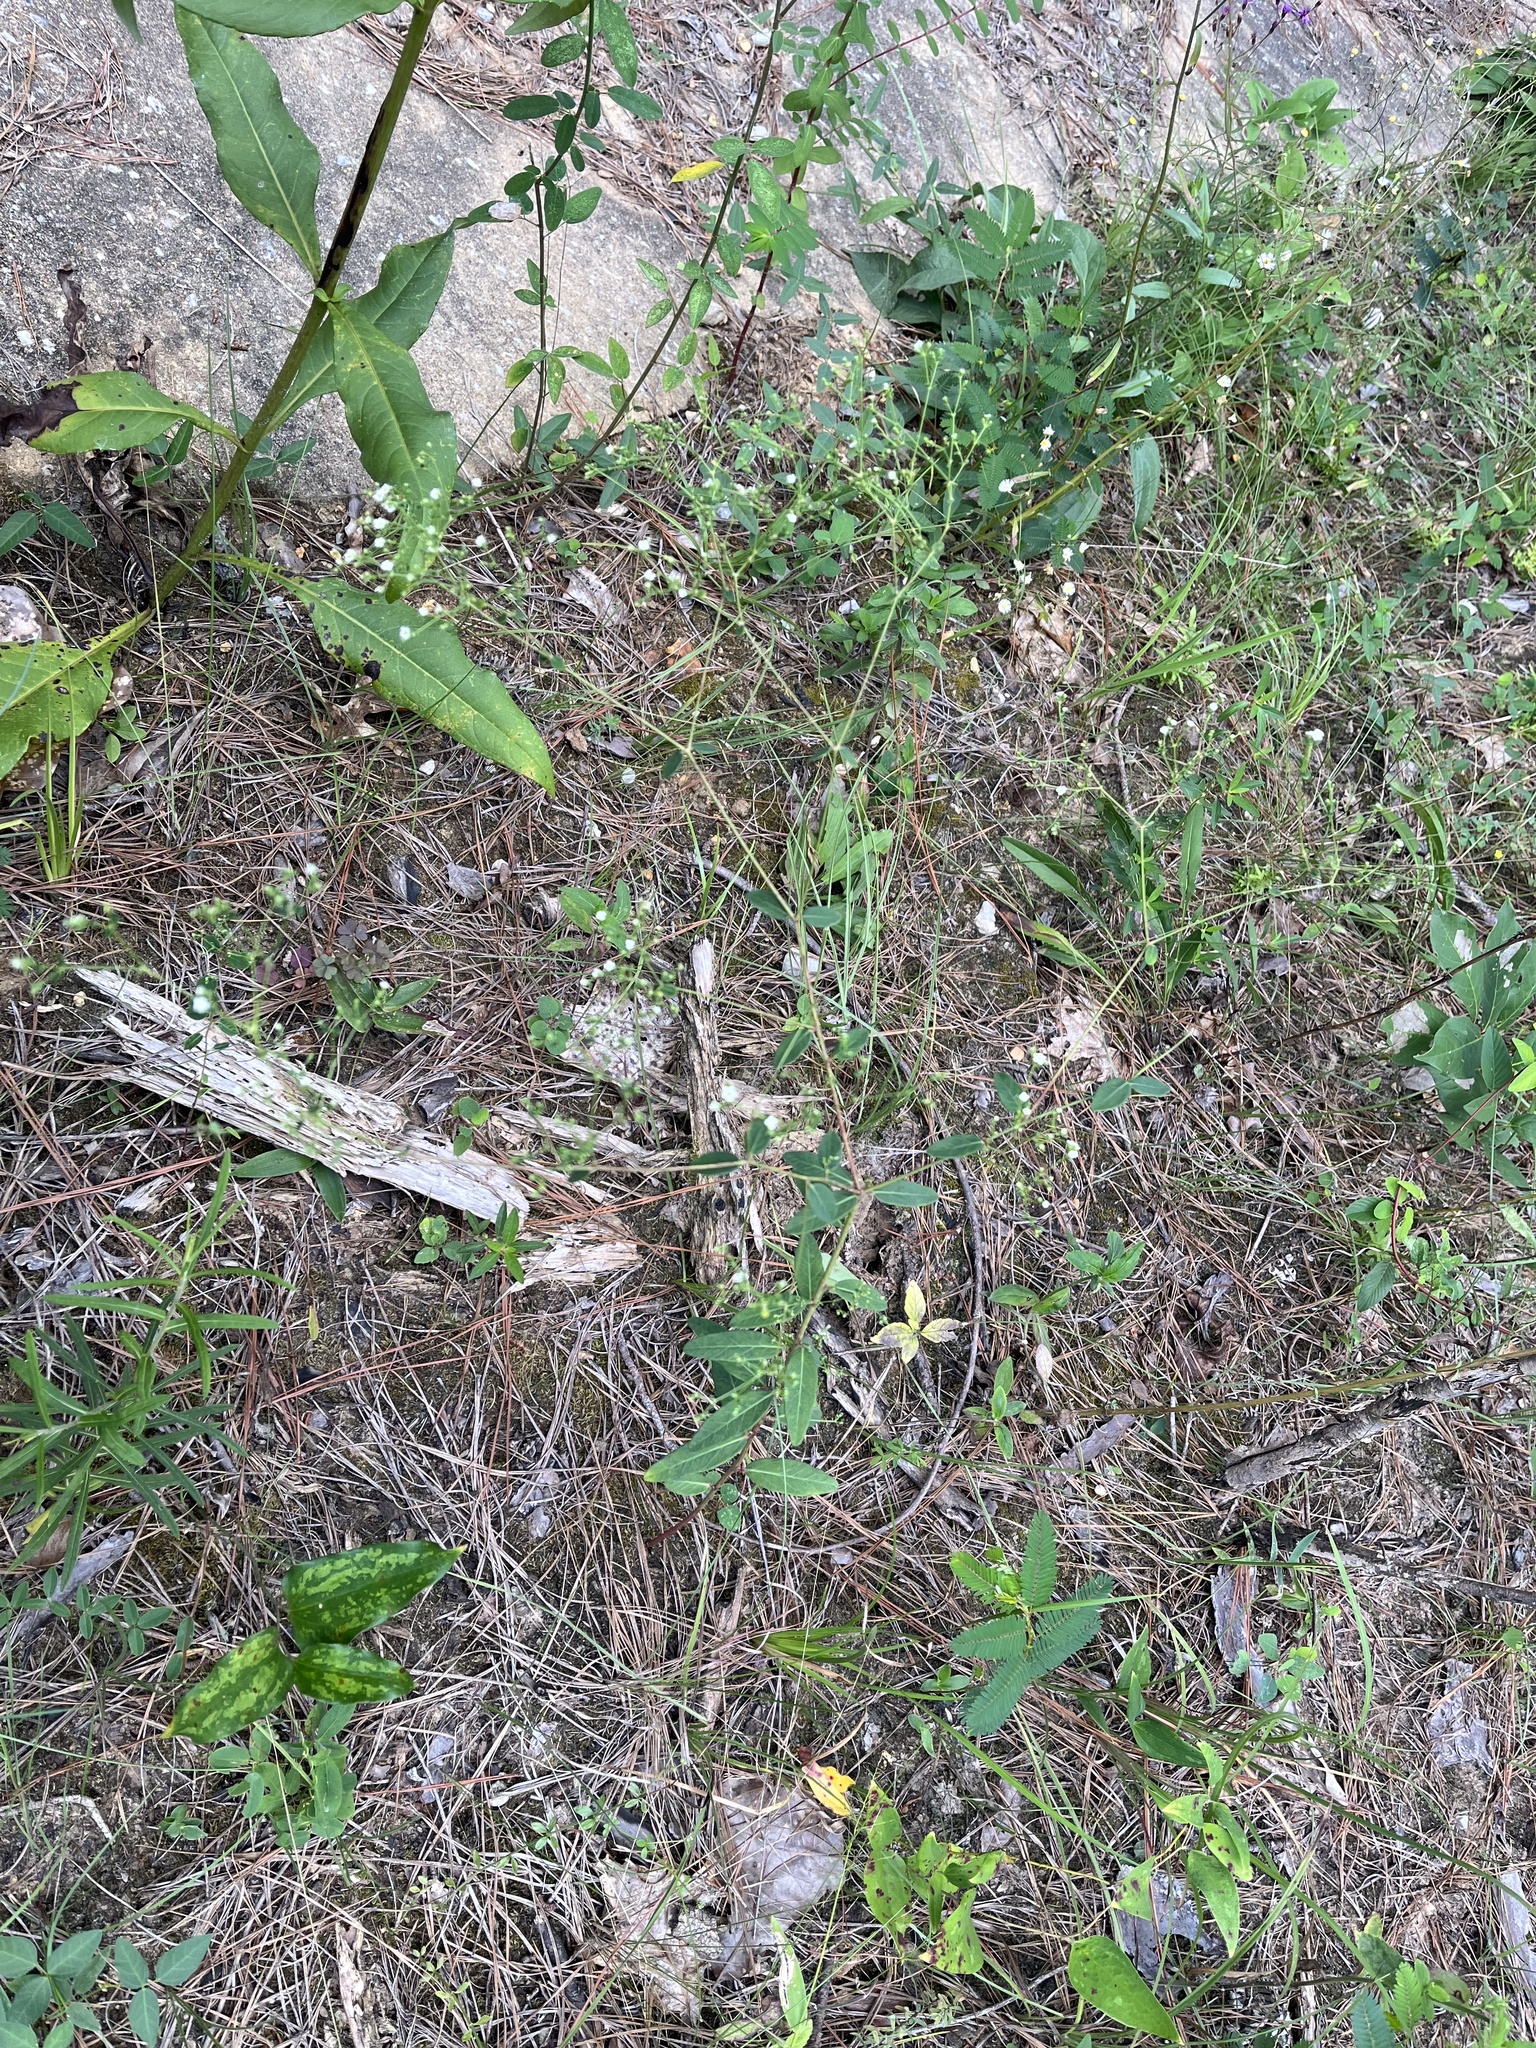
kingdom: Plantae
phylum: Tracheophyta
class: Magnoliopsida
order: Malpighiales
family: Euphorbiaceae
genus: Euphorbia
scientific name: Euphorbia pubentissima
